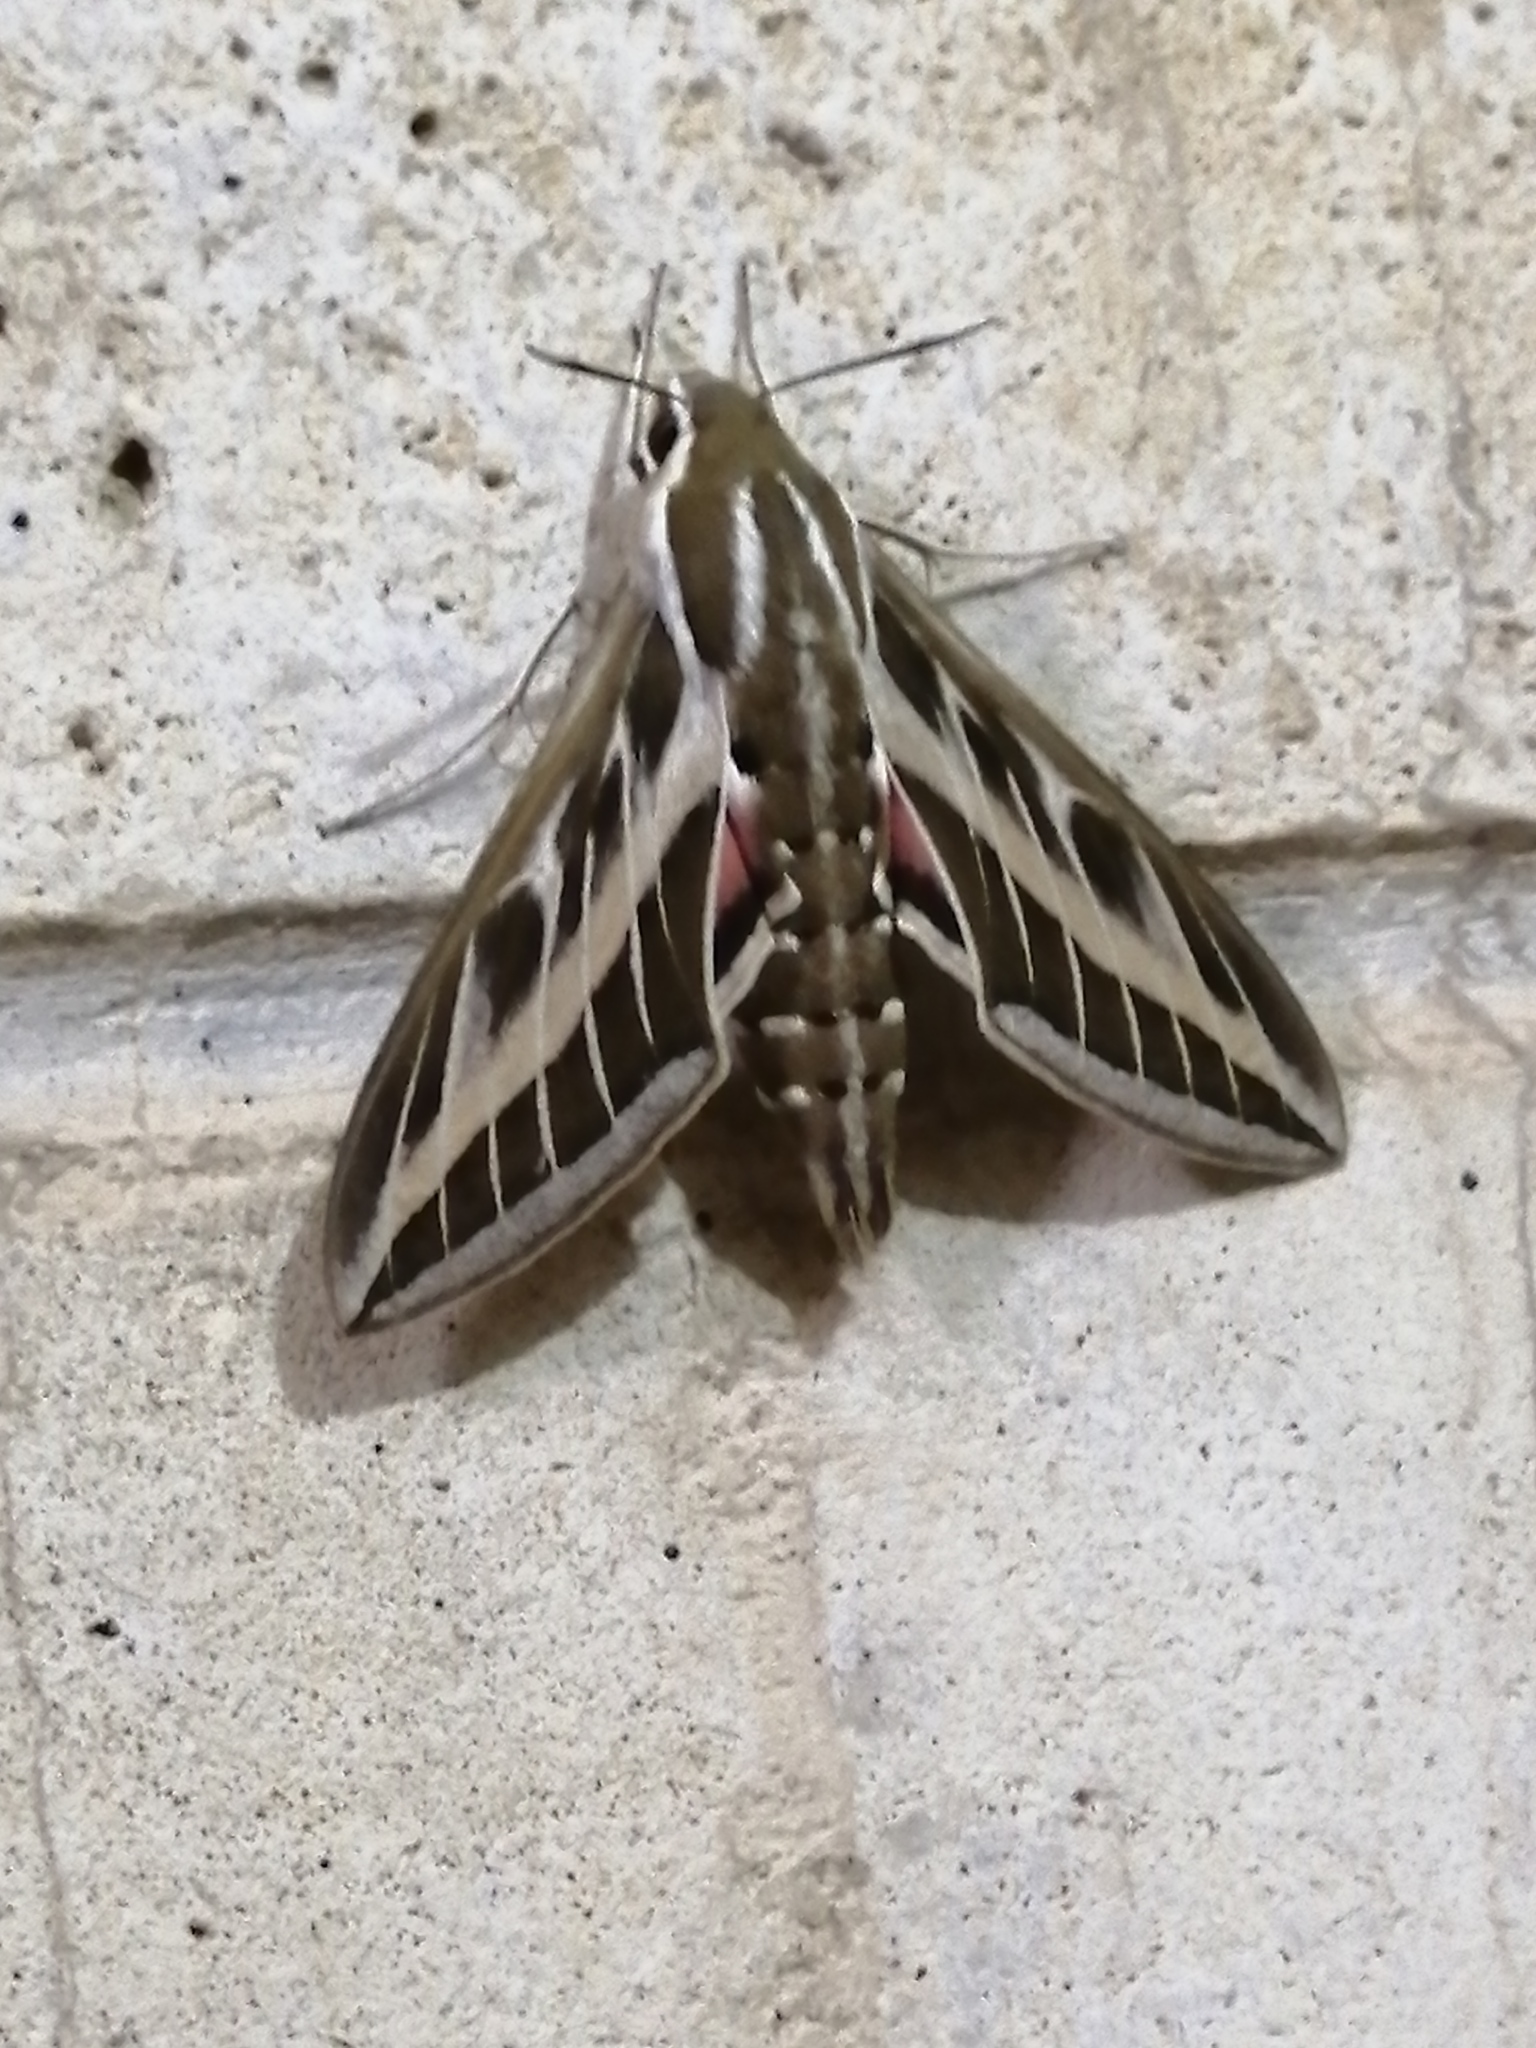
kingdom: Animalia
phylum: Arthropoda
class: Insecta
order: Lepidoptera
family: Sphingidae
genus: Hyles
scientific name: Hyles livornica
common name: Striped hawk-moth
